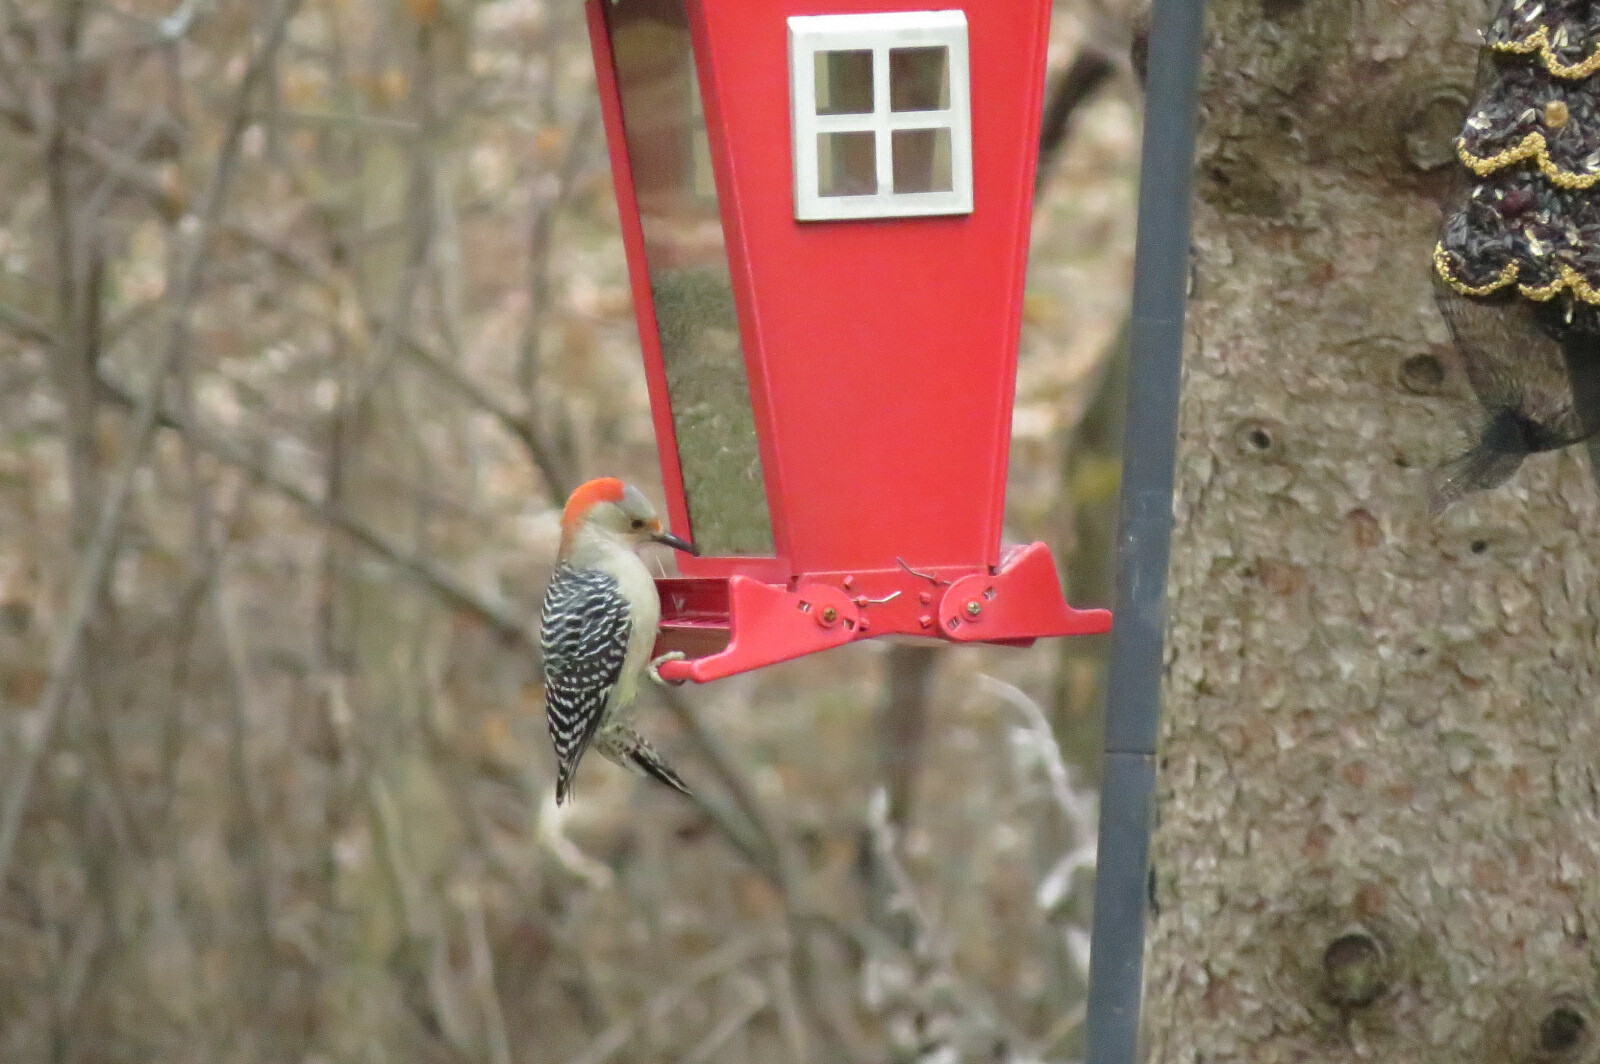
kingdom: Animalia
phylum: Chordata
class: Aves
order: Piciformes
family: Picidae
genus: Melanerpes
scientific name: Melanerpes carolinus
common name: Red-bellied woodpecker
